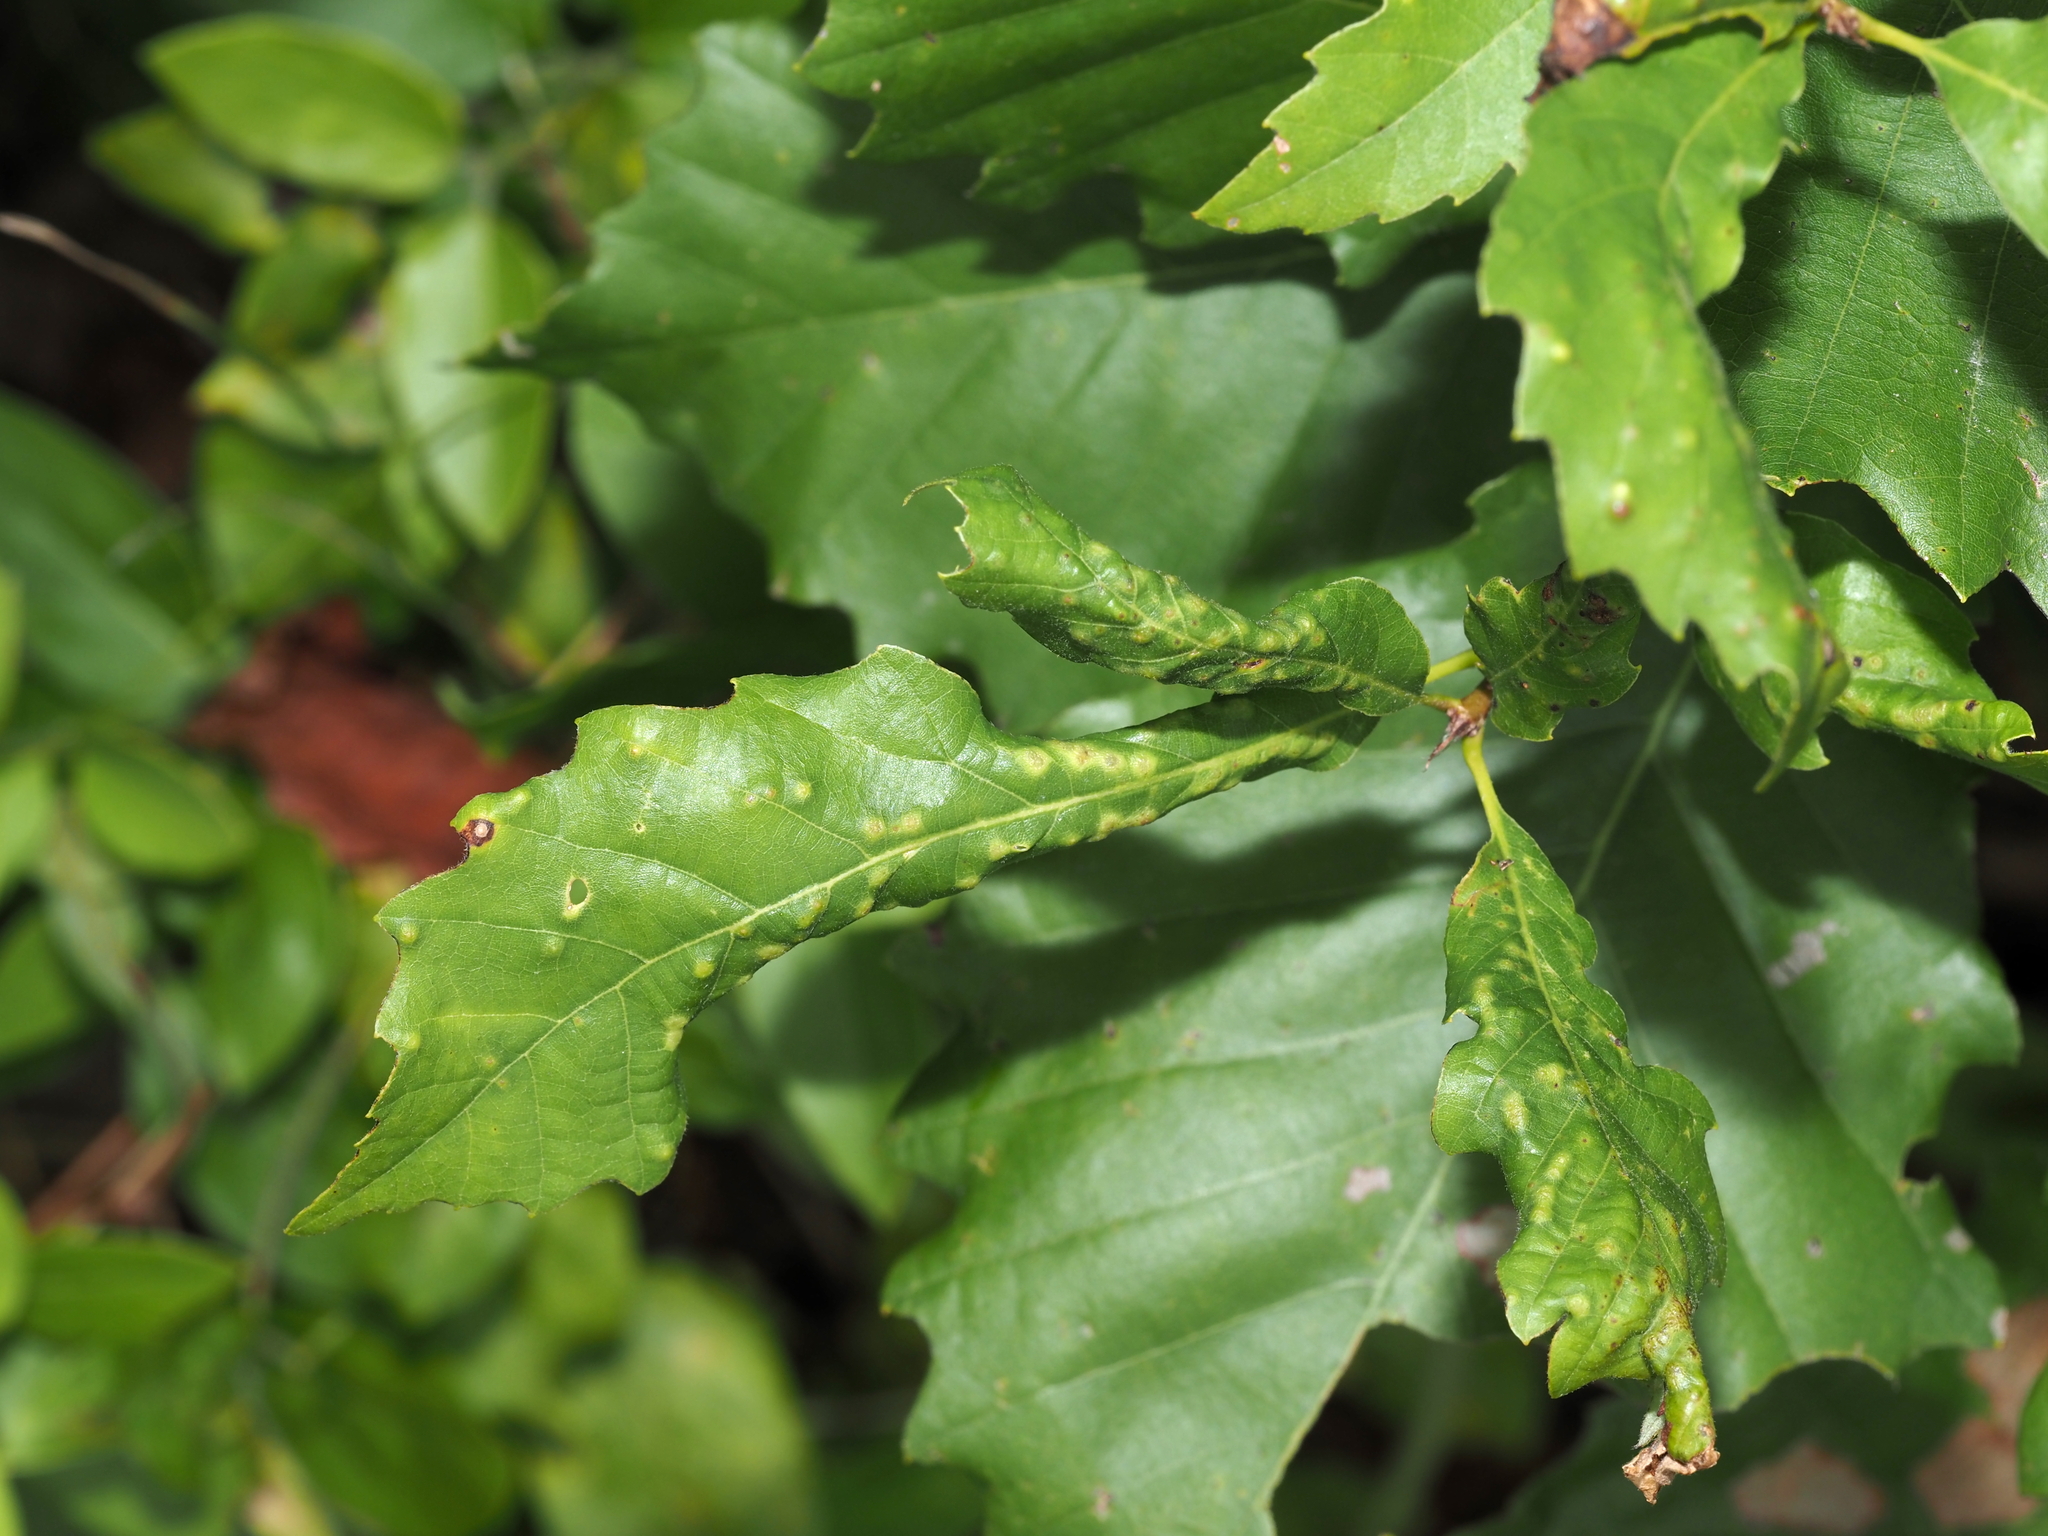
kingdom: Animalia
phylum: Arthropoda
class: Insecta
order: Hymenoptera
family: Cynipidae
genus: Neuroterus
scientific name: Neuroterus quercusverrucarum
